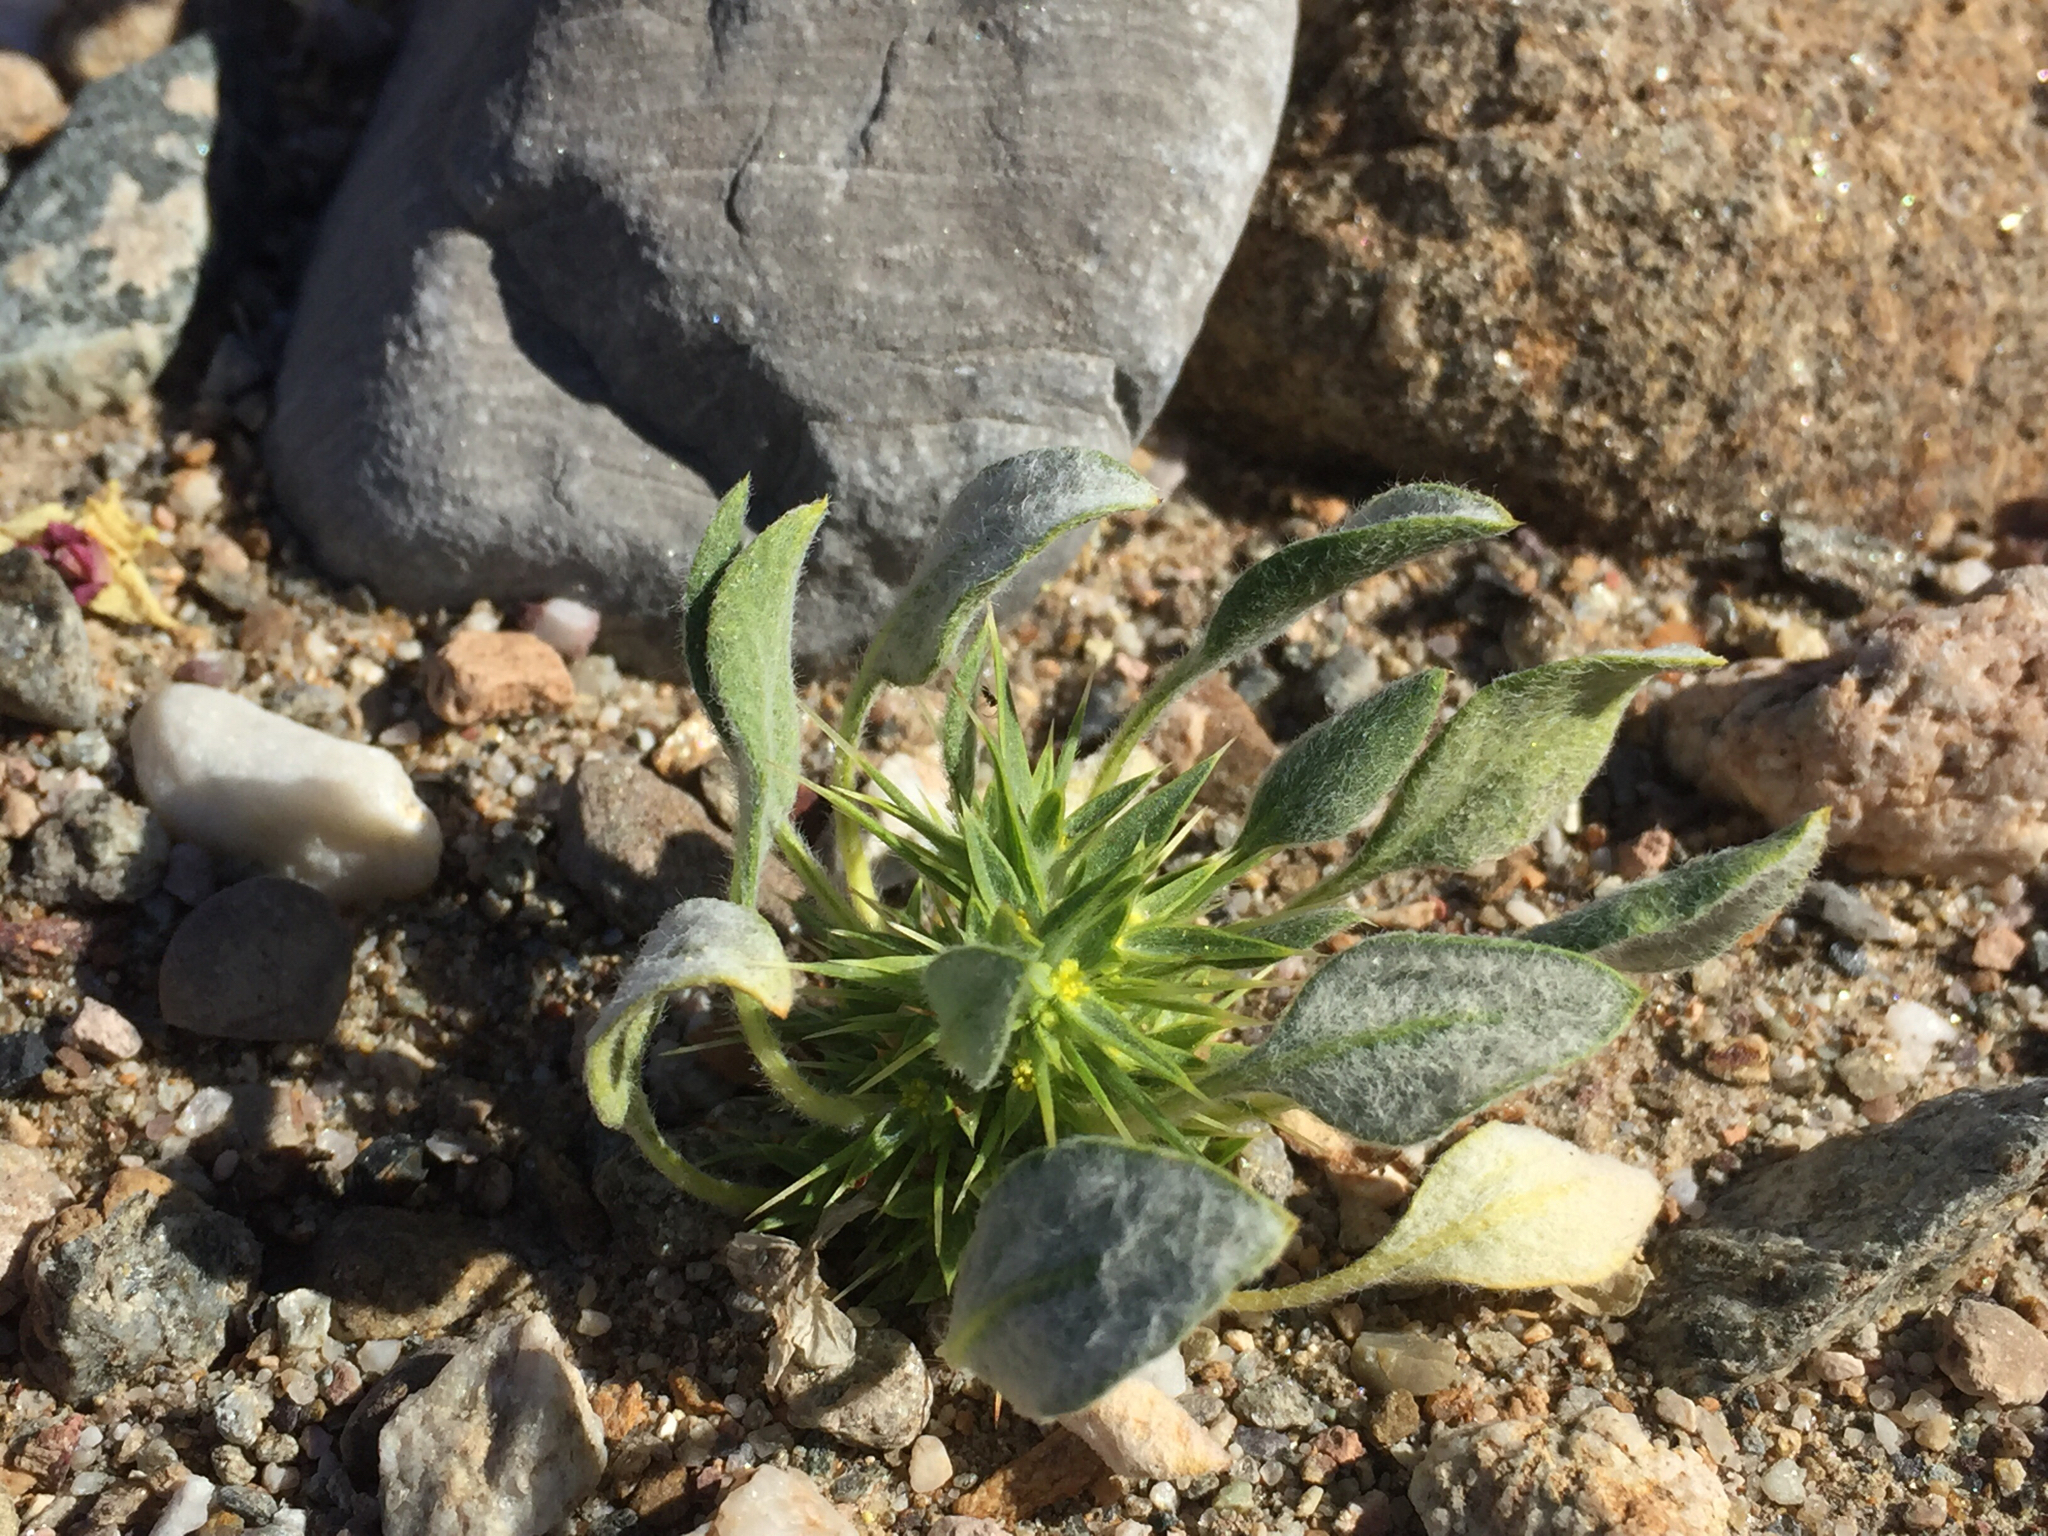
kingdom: Plantae
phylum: Tracheophyta
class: Magnoliopsida
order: Caryophyllales
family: Polygonaceae
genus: Chorizanthe
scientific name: Chorizanthe rigida
